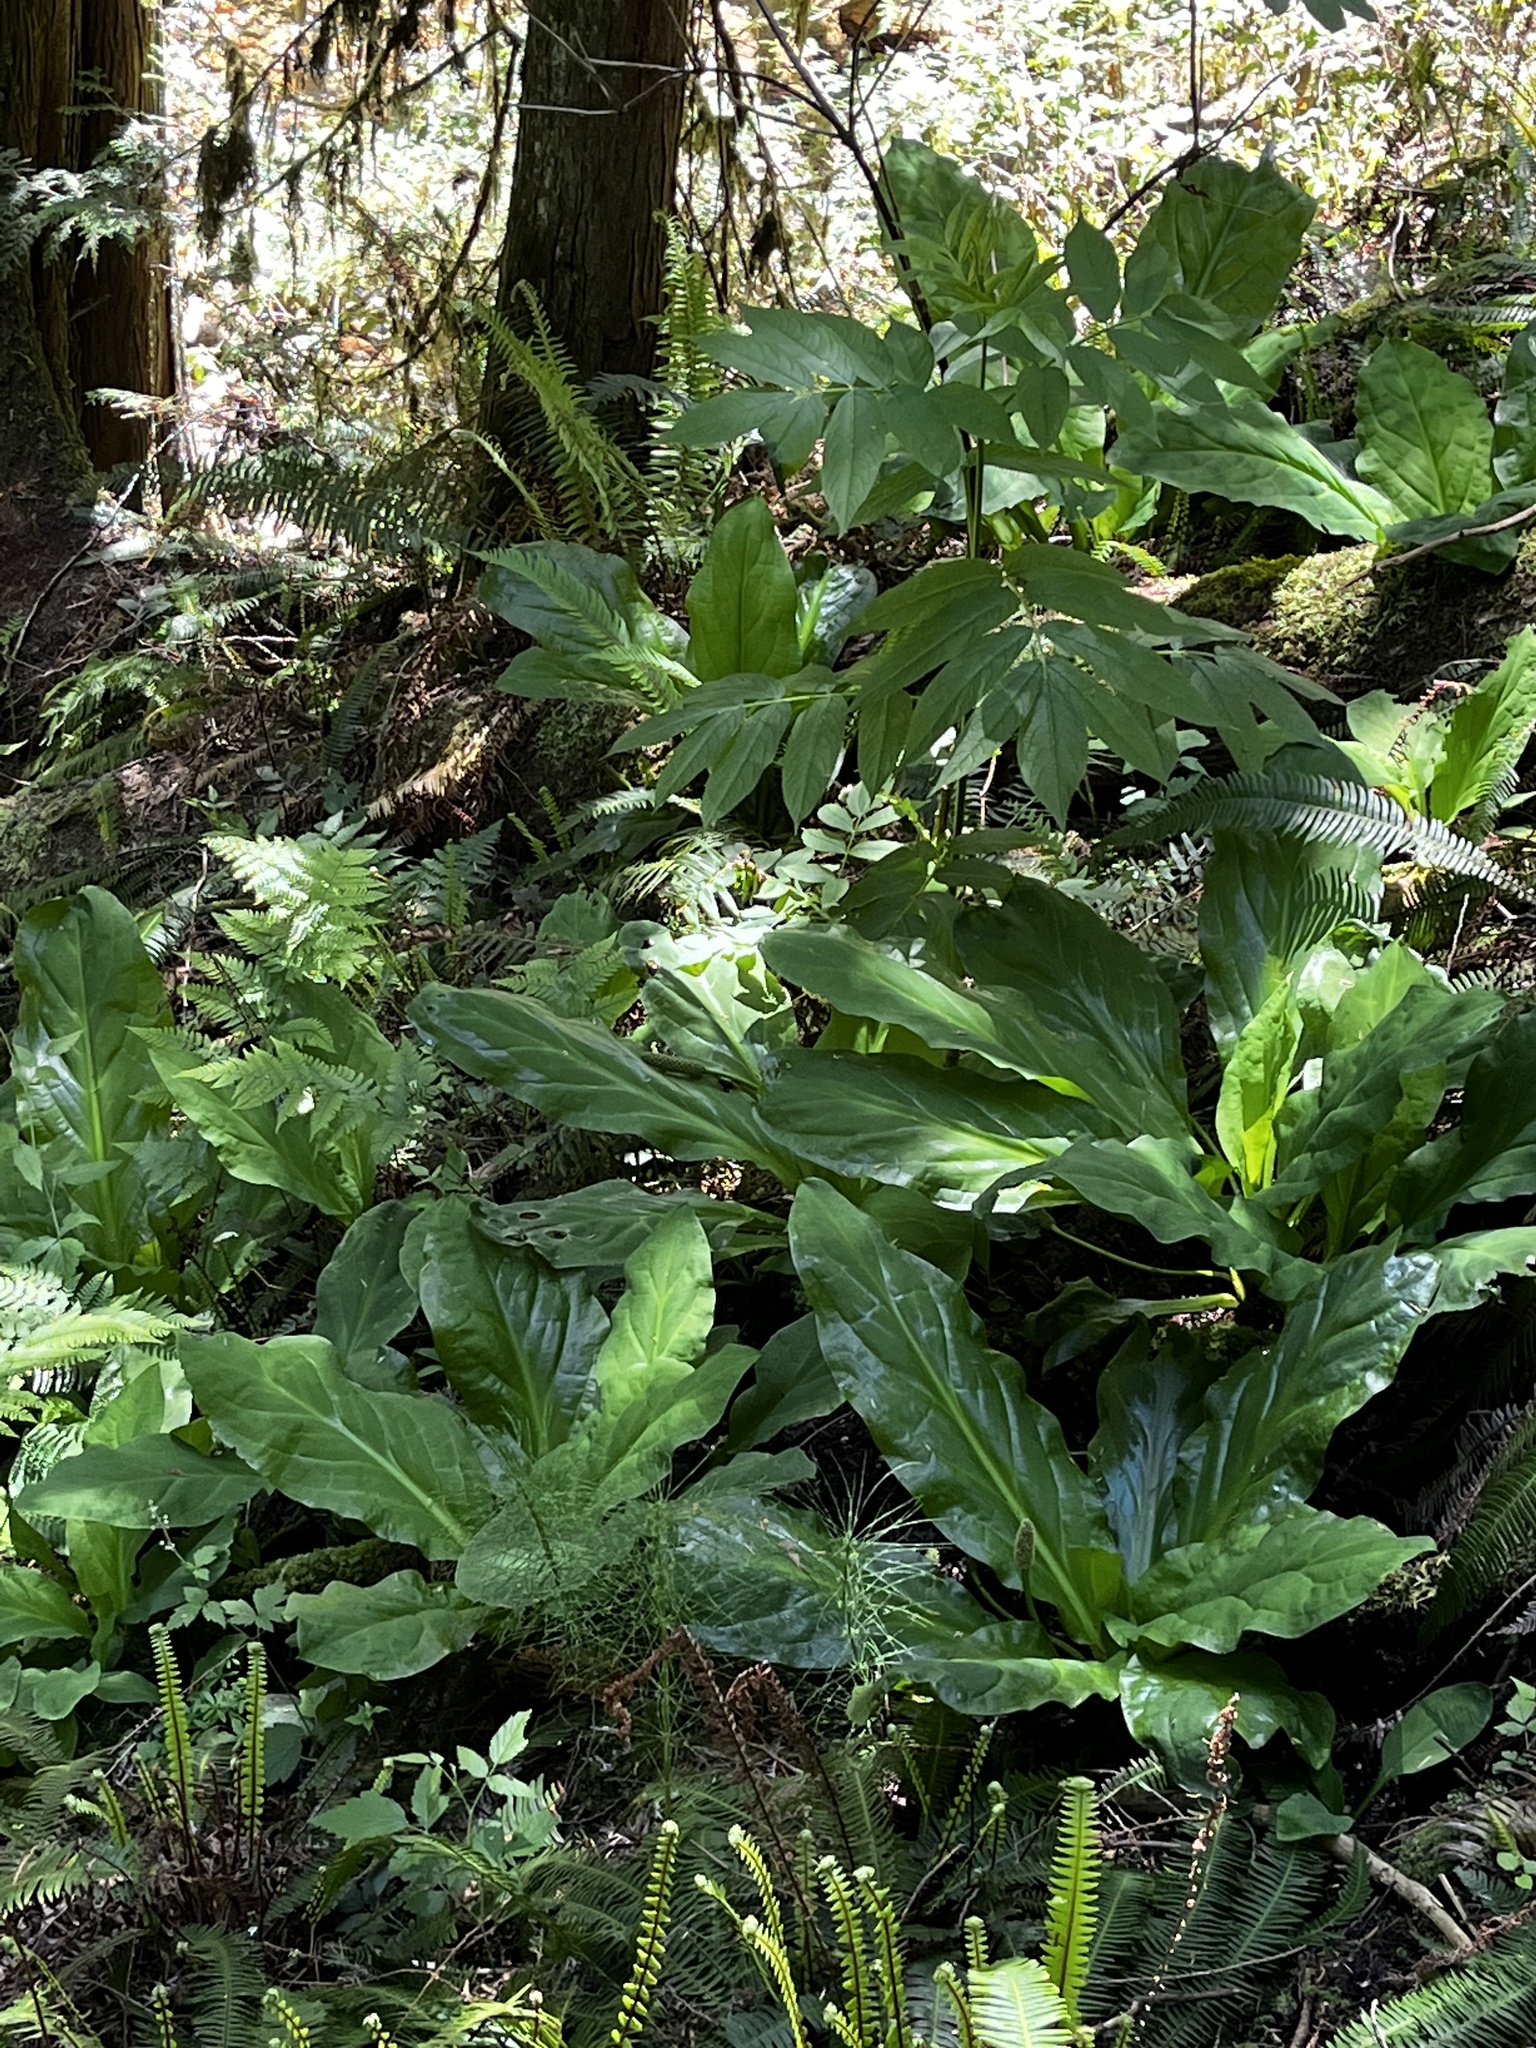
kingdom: Plantae
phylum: Tracheophyta
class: Liliopsida
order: Alismatales
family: Araceae
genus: Lysichiton
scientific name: Lysichiton americanus
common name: American skunk cabbage
